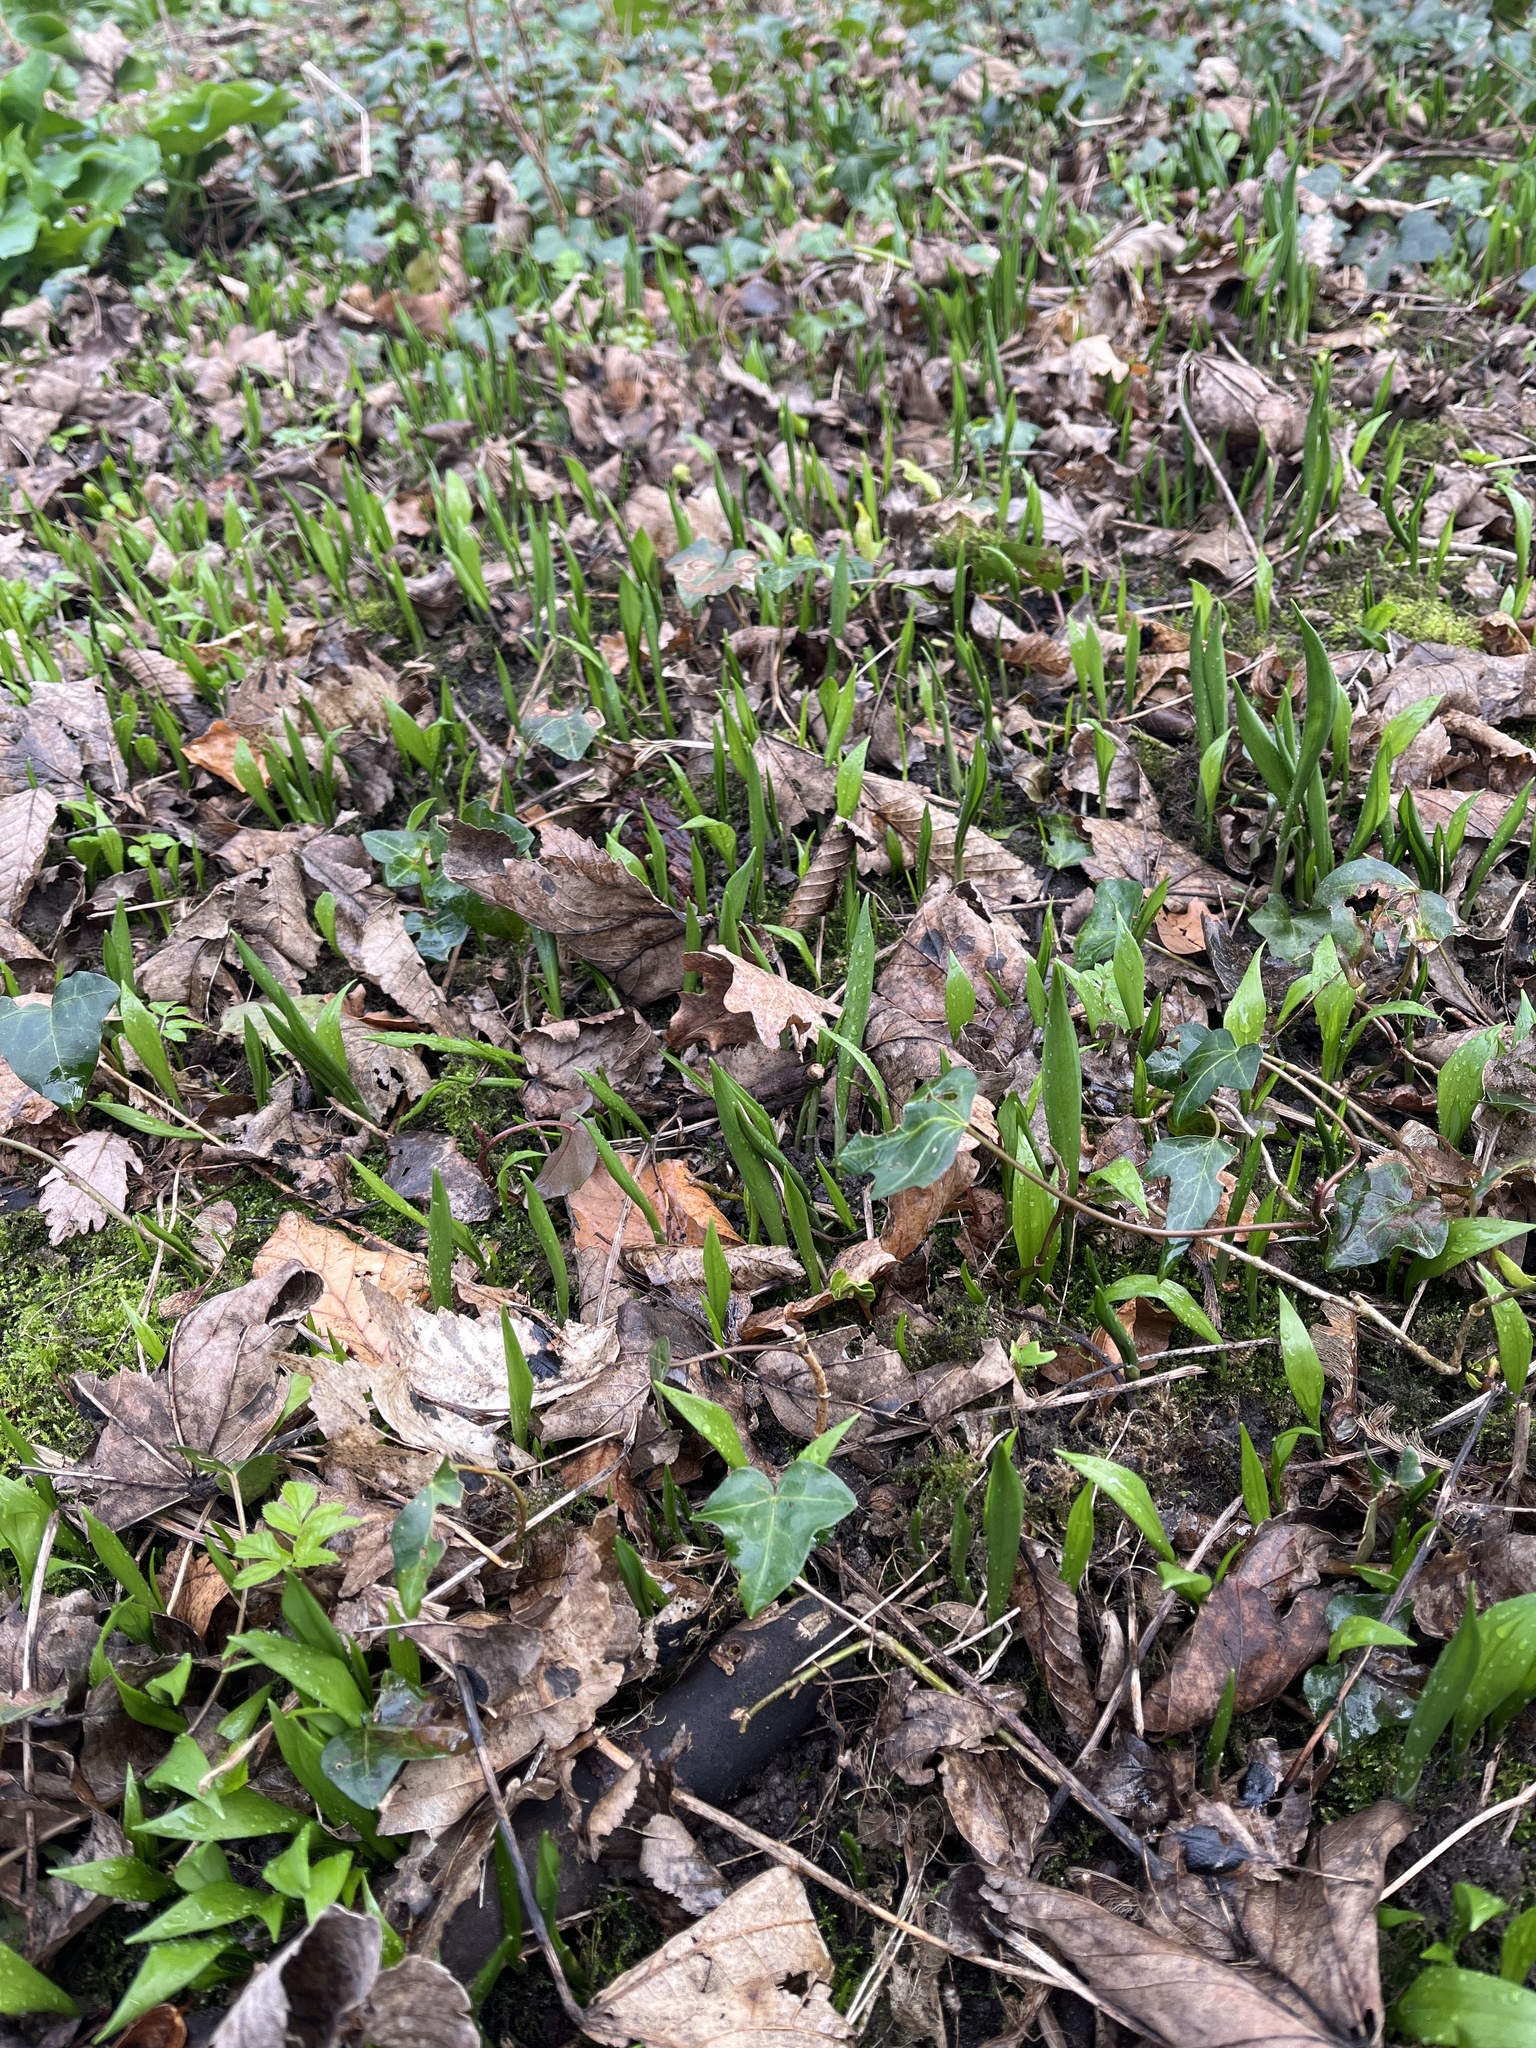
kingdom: Plantae
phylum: Tracheophyta
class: Liliopsida
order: Asparagales
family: Amaryllidaceae
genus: Allium
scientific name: Allium ursinum
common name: Ramsons
